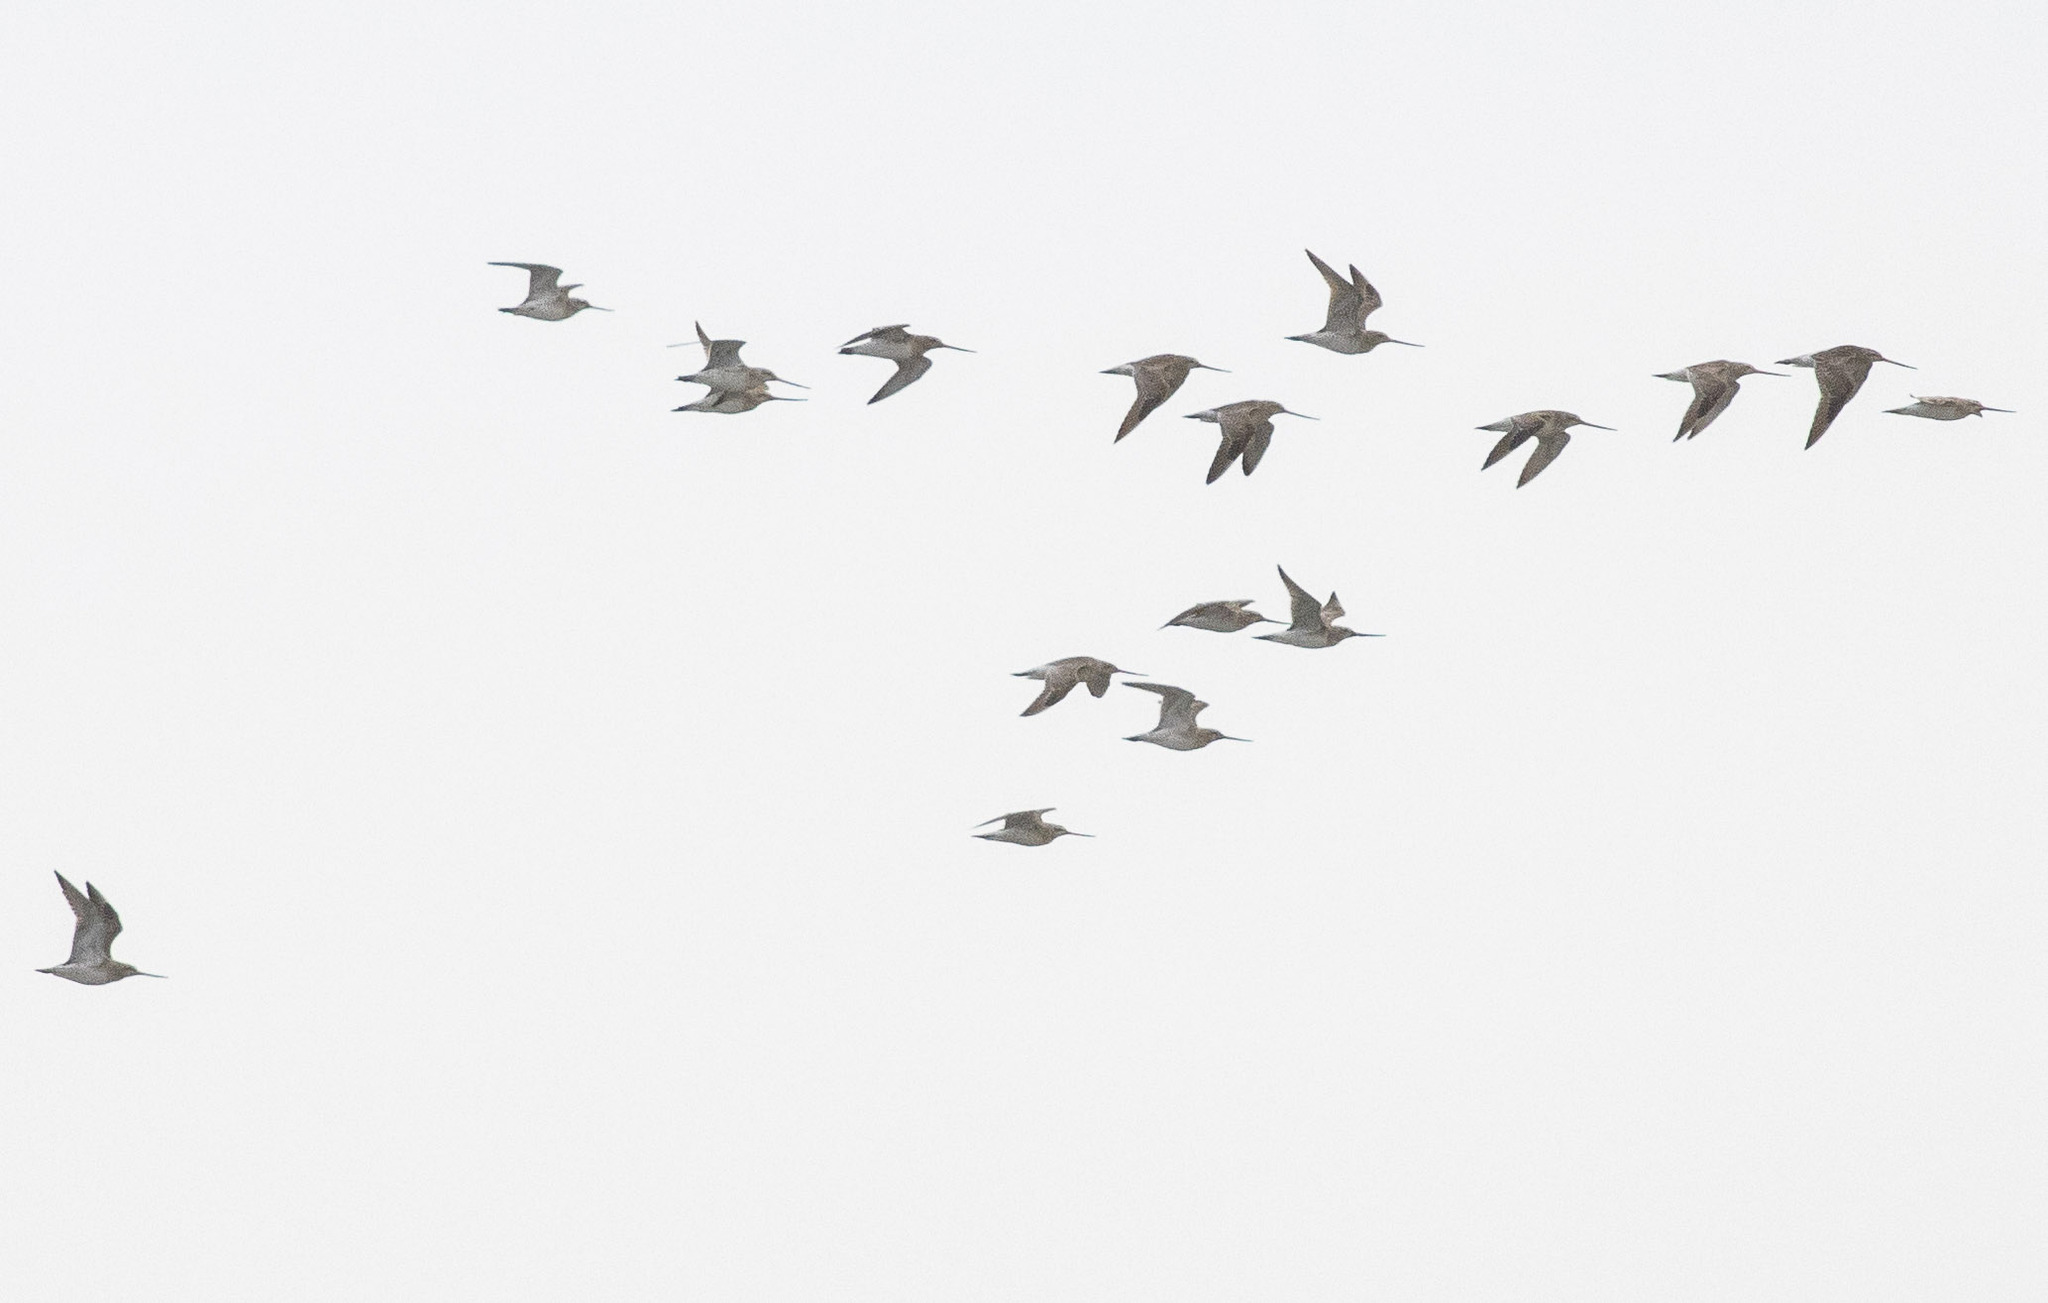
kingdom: Animalia
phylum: Chordata
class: Aves
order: Charadriiformes
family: Scolopacidae
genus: Limosa
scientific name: Limosa lapponica
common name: Bar-tailed godwit
